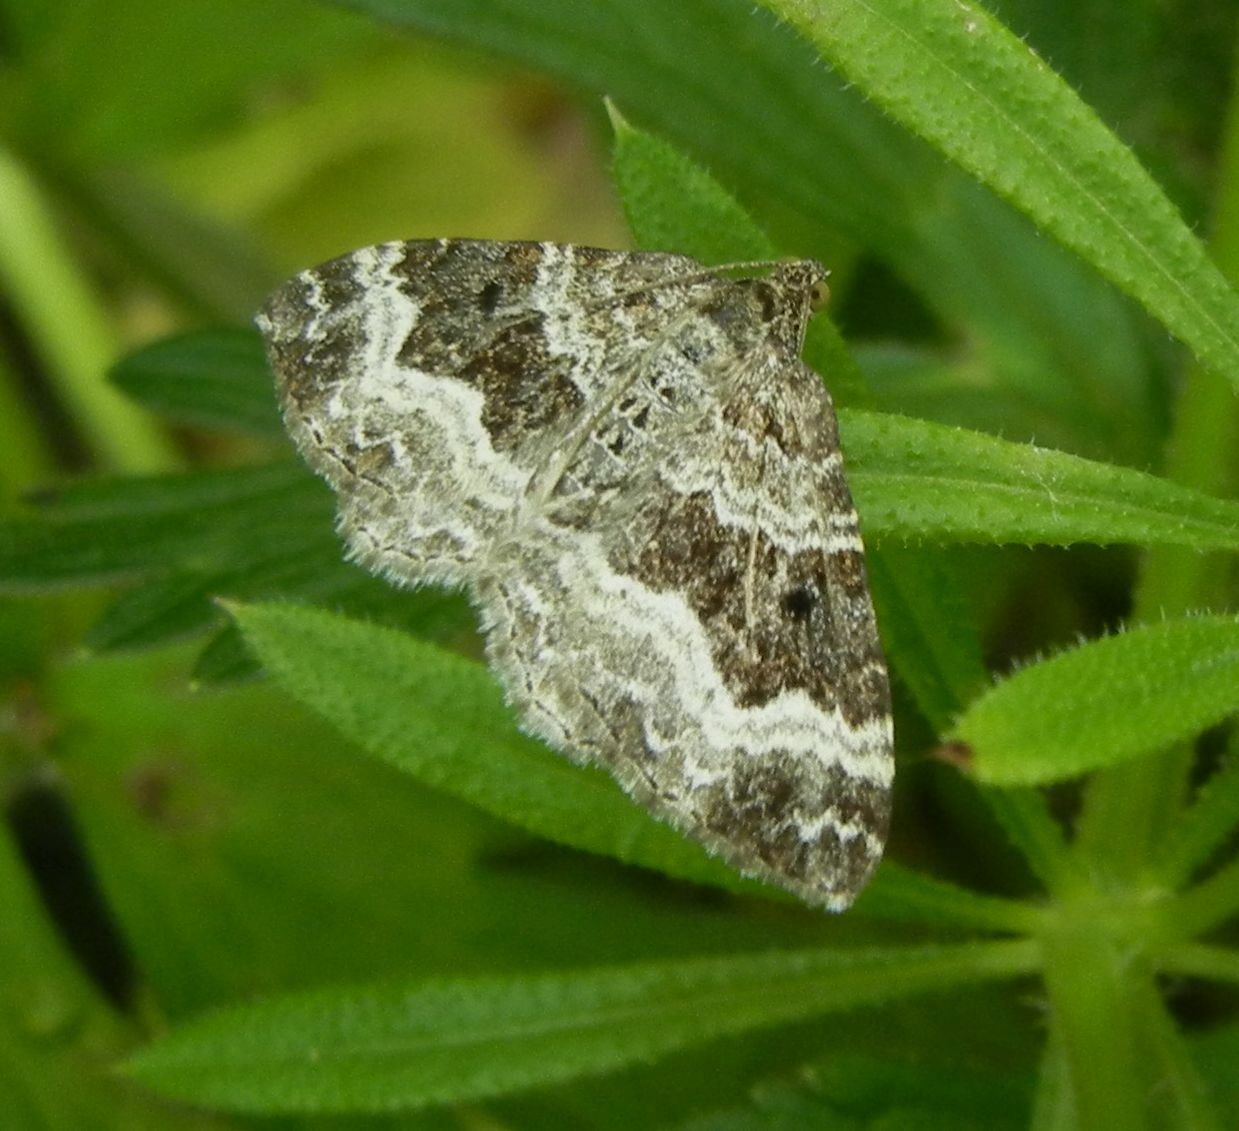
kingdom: Animalia
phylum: Arthropoda
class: Insecta
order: Lepidoptera
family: Geometridae
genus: Epirrhoe
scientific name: Epirrhoe alternata
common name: Common carpet
